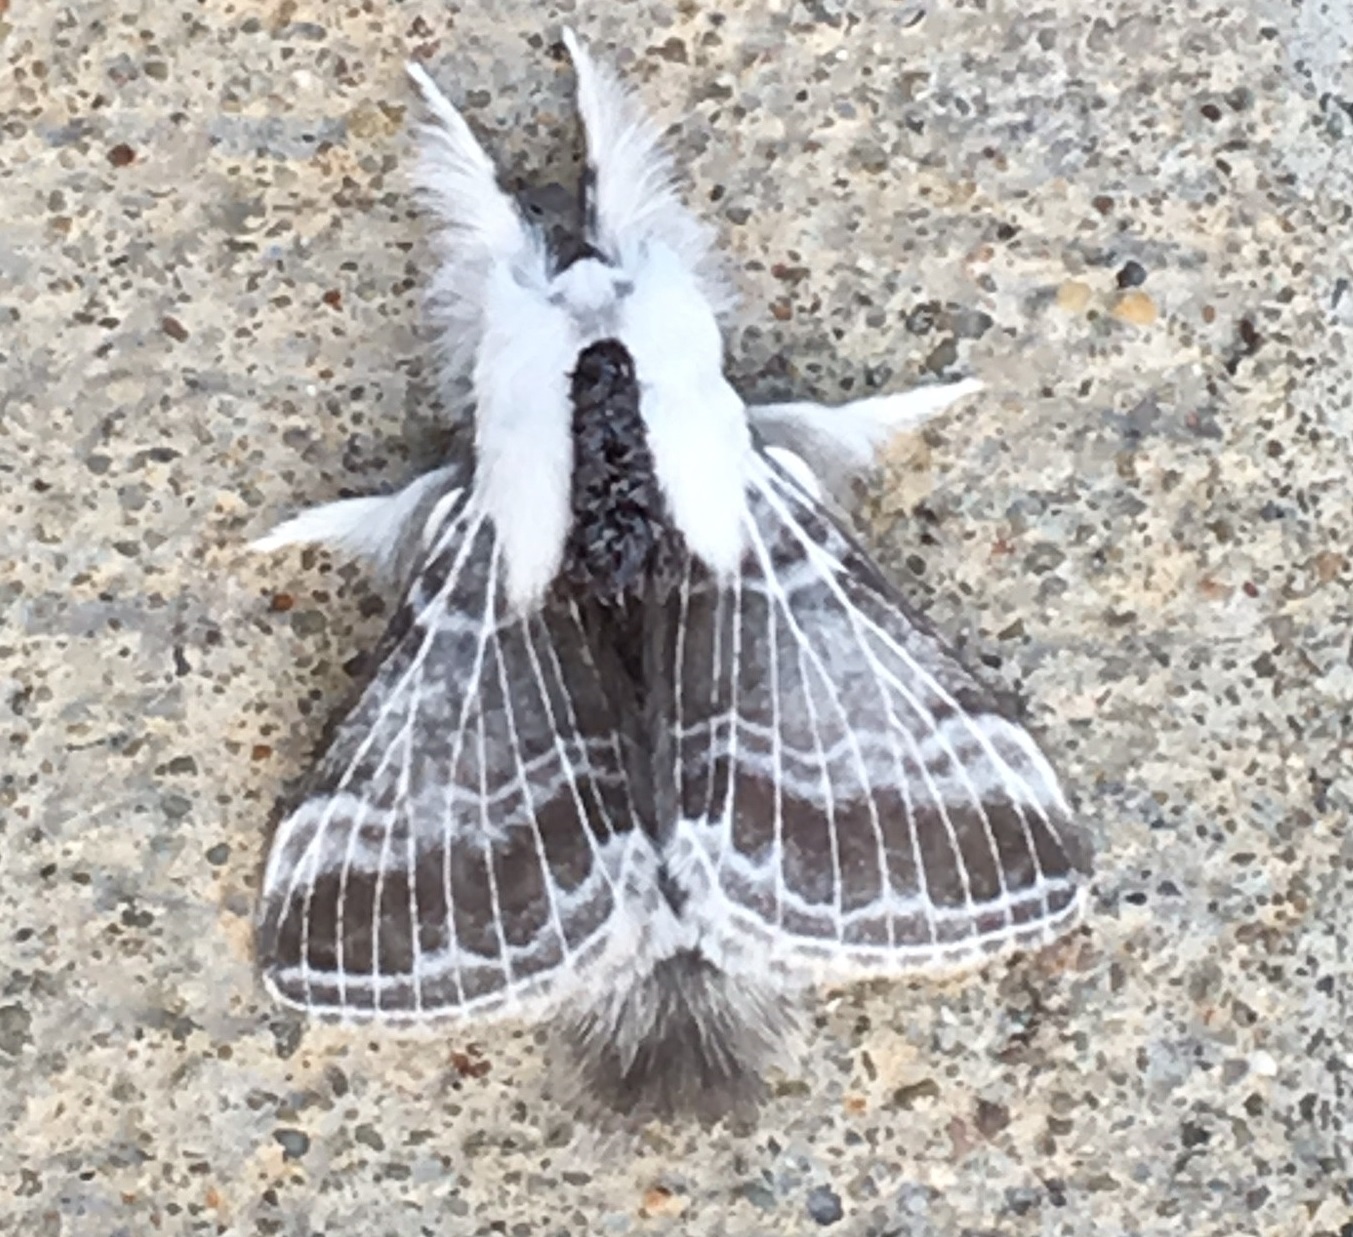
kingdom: Animalia
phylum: Arthropoda
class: Insecta
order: Lepidoptera
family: Lasiocampidae
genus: Tolype
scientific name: Tolype velleda
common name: Large tolype moth
